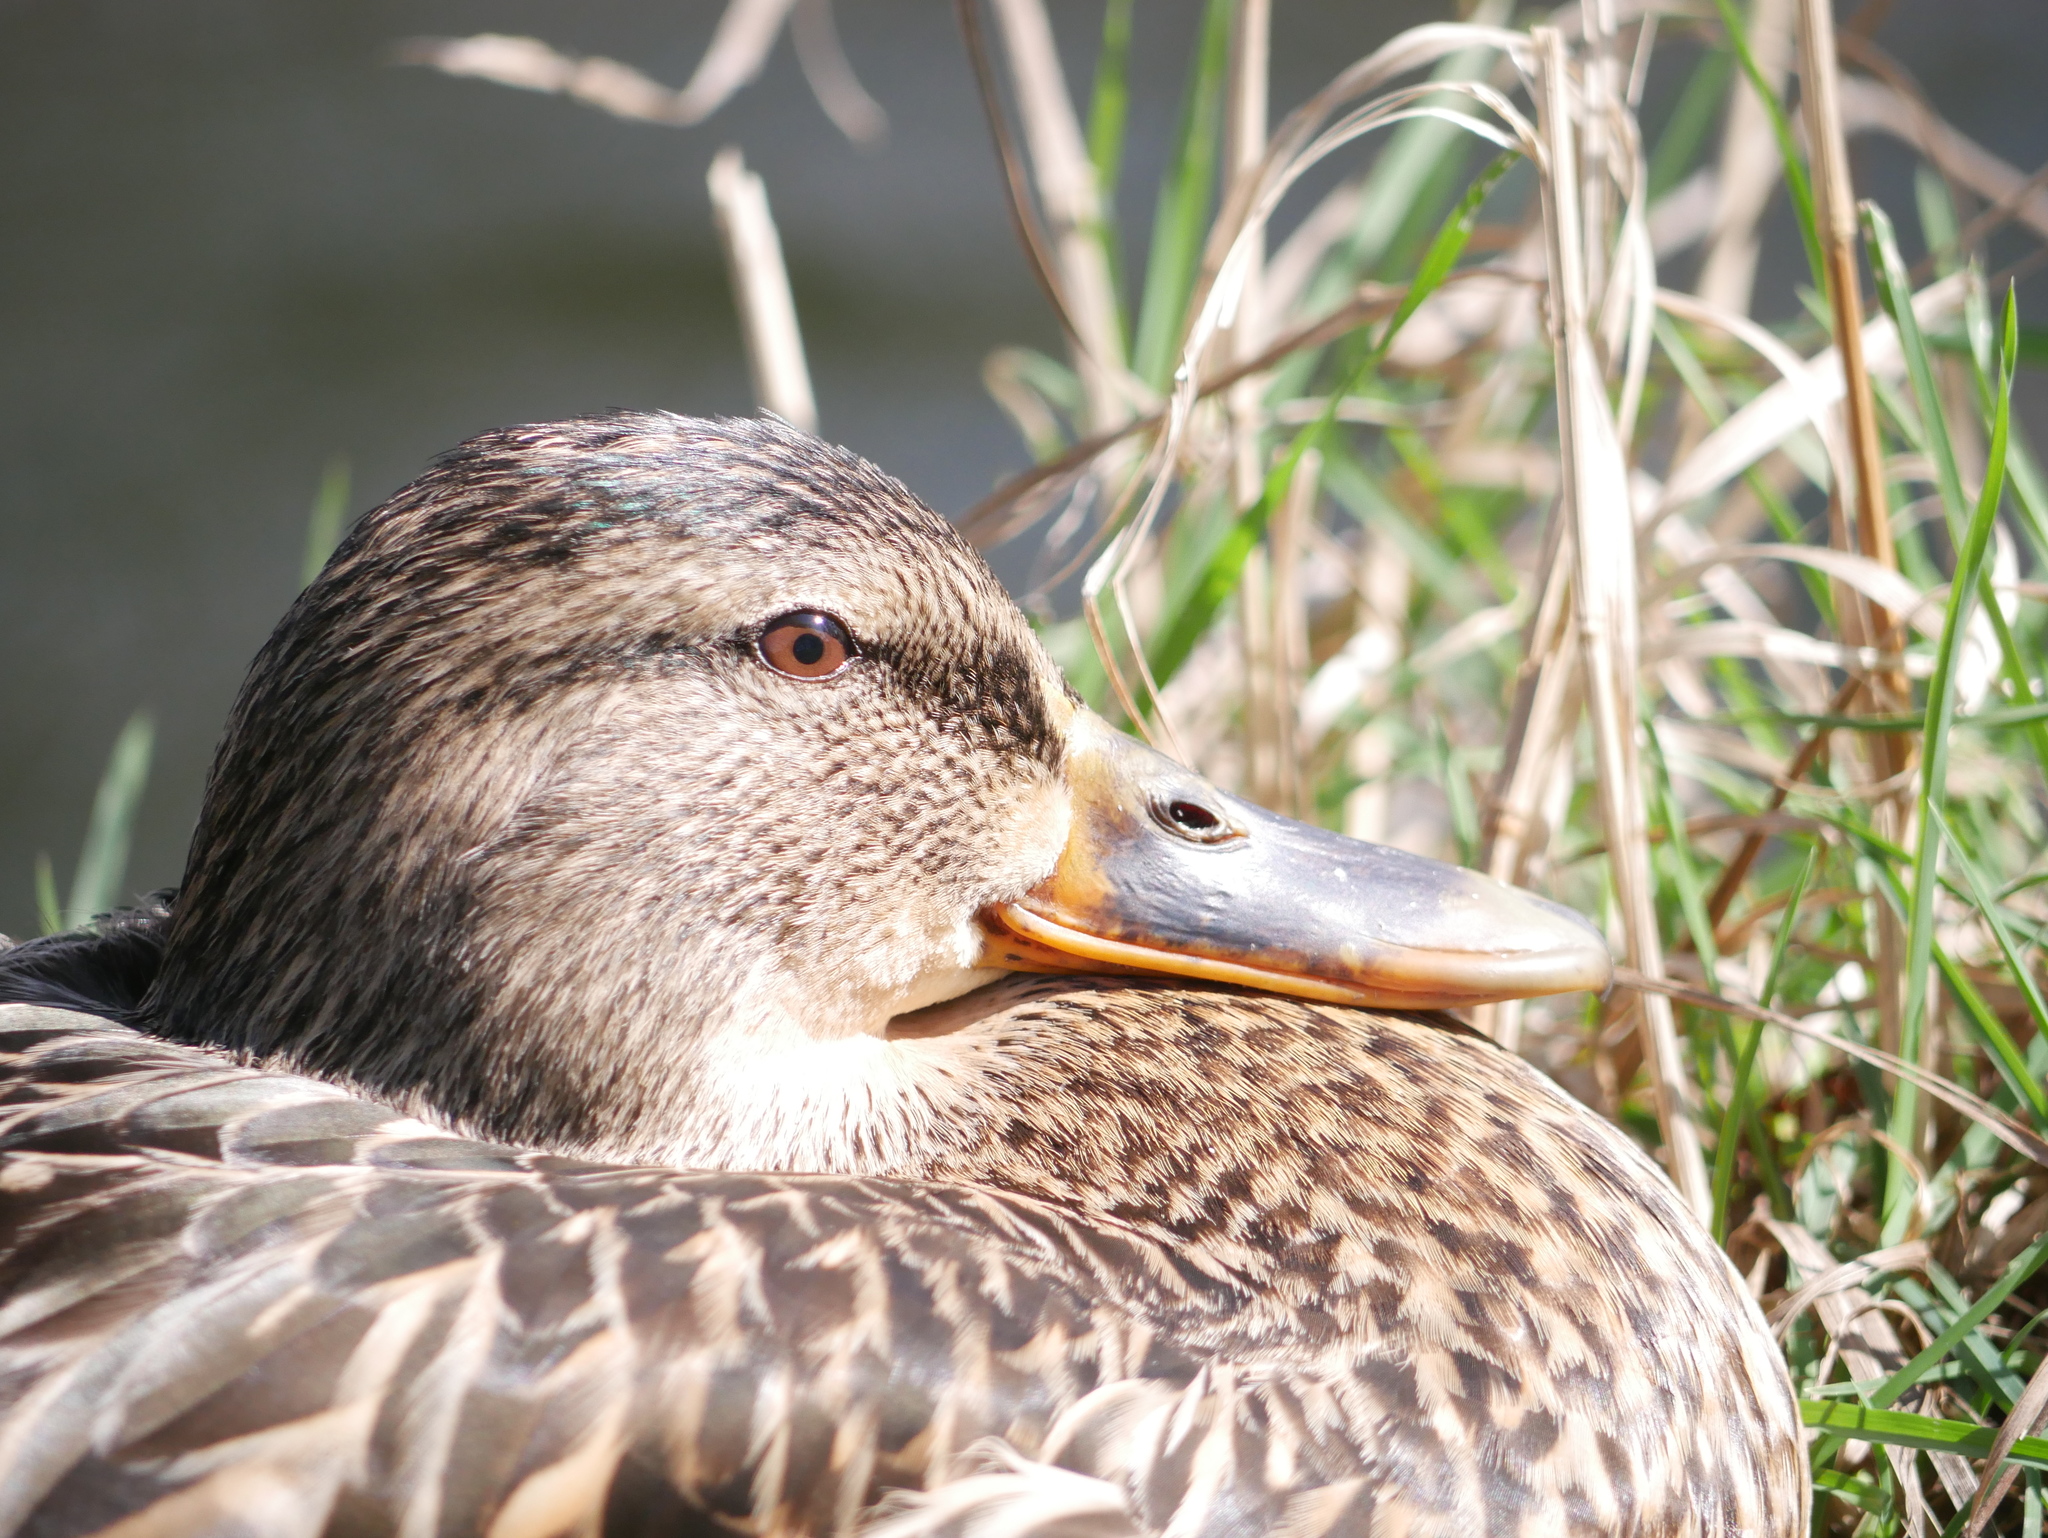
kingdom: Animalia
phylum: Chordata
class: Aves
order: Anseriformes
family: Anatidae
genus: Anas
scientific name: Anas platyrhynchos
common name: Mallard
